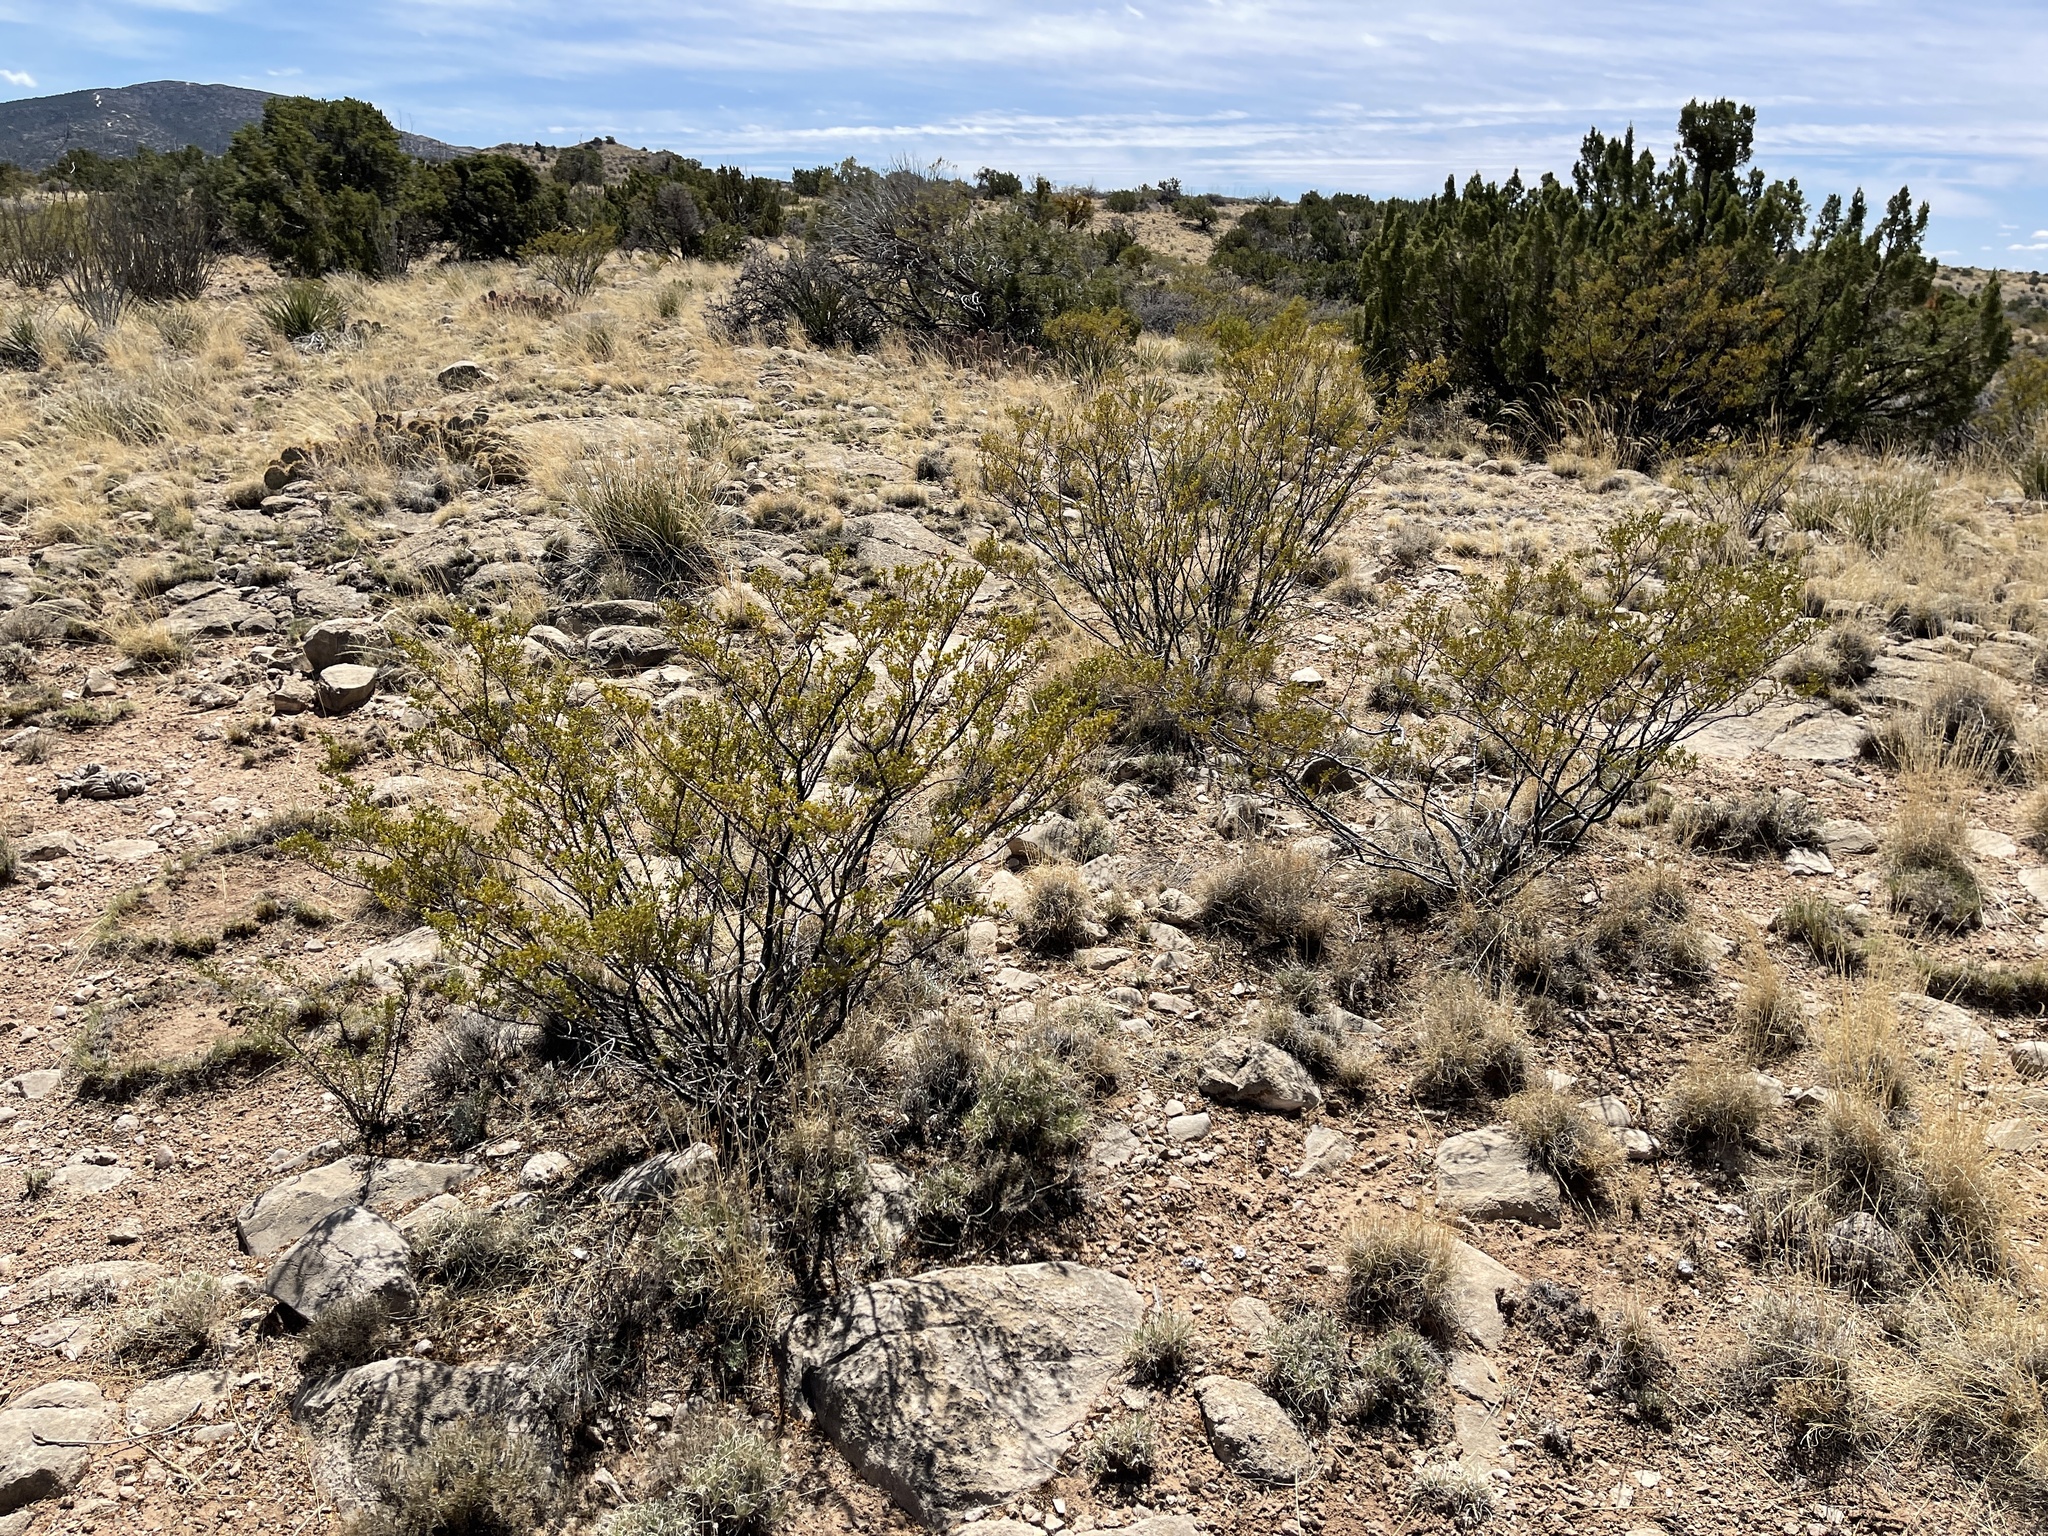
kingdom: Plantae
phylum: Tracheophyta
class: Magnoliopsida
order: Zygophyllales
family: Zygophyllaceae
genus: Larrea
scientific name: Larrea tridentata
